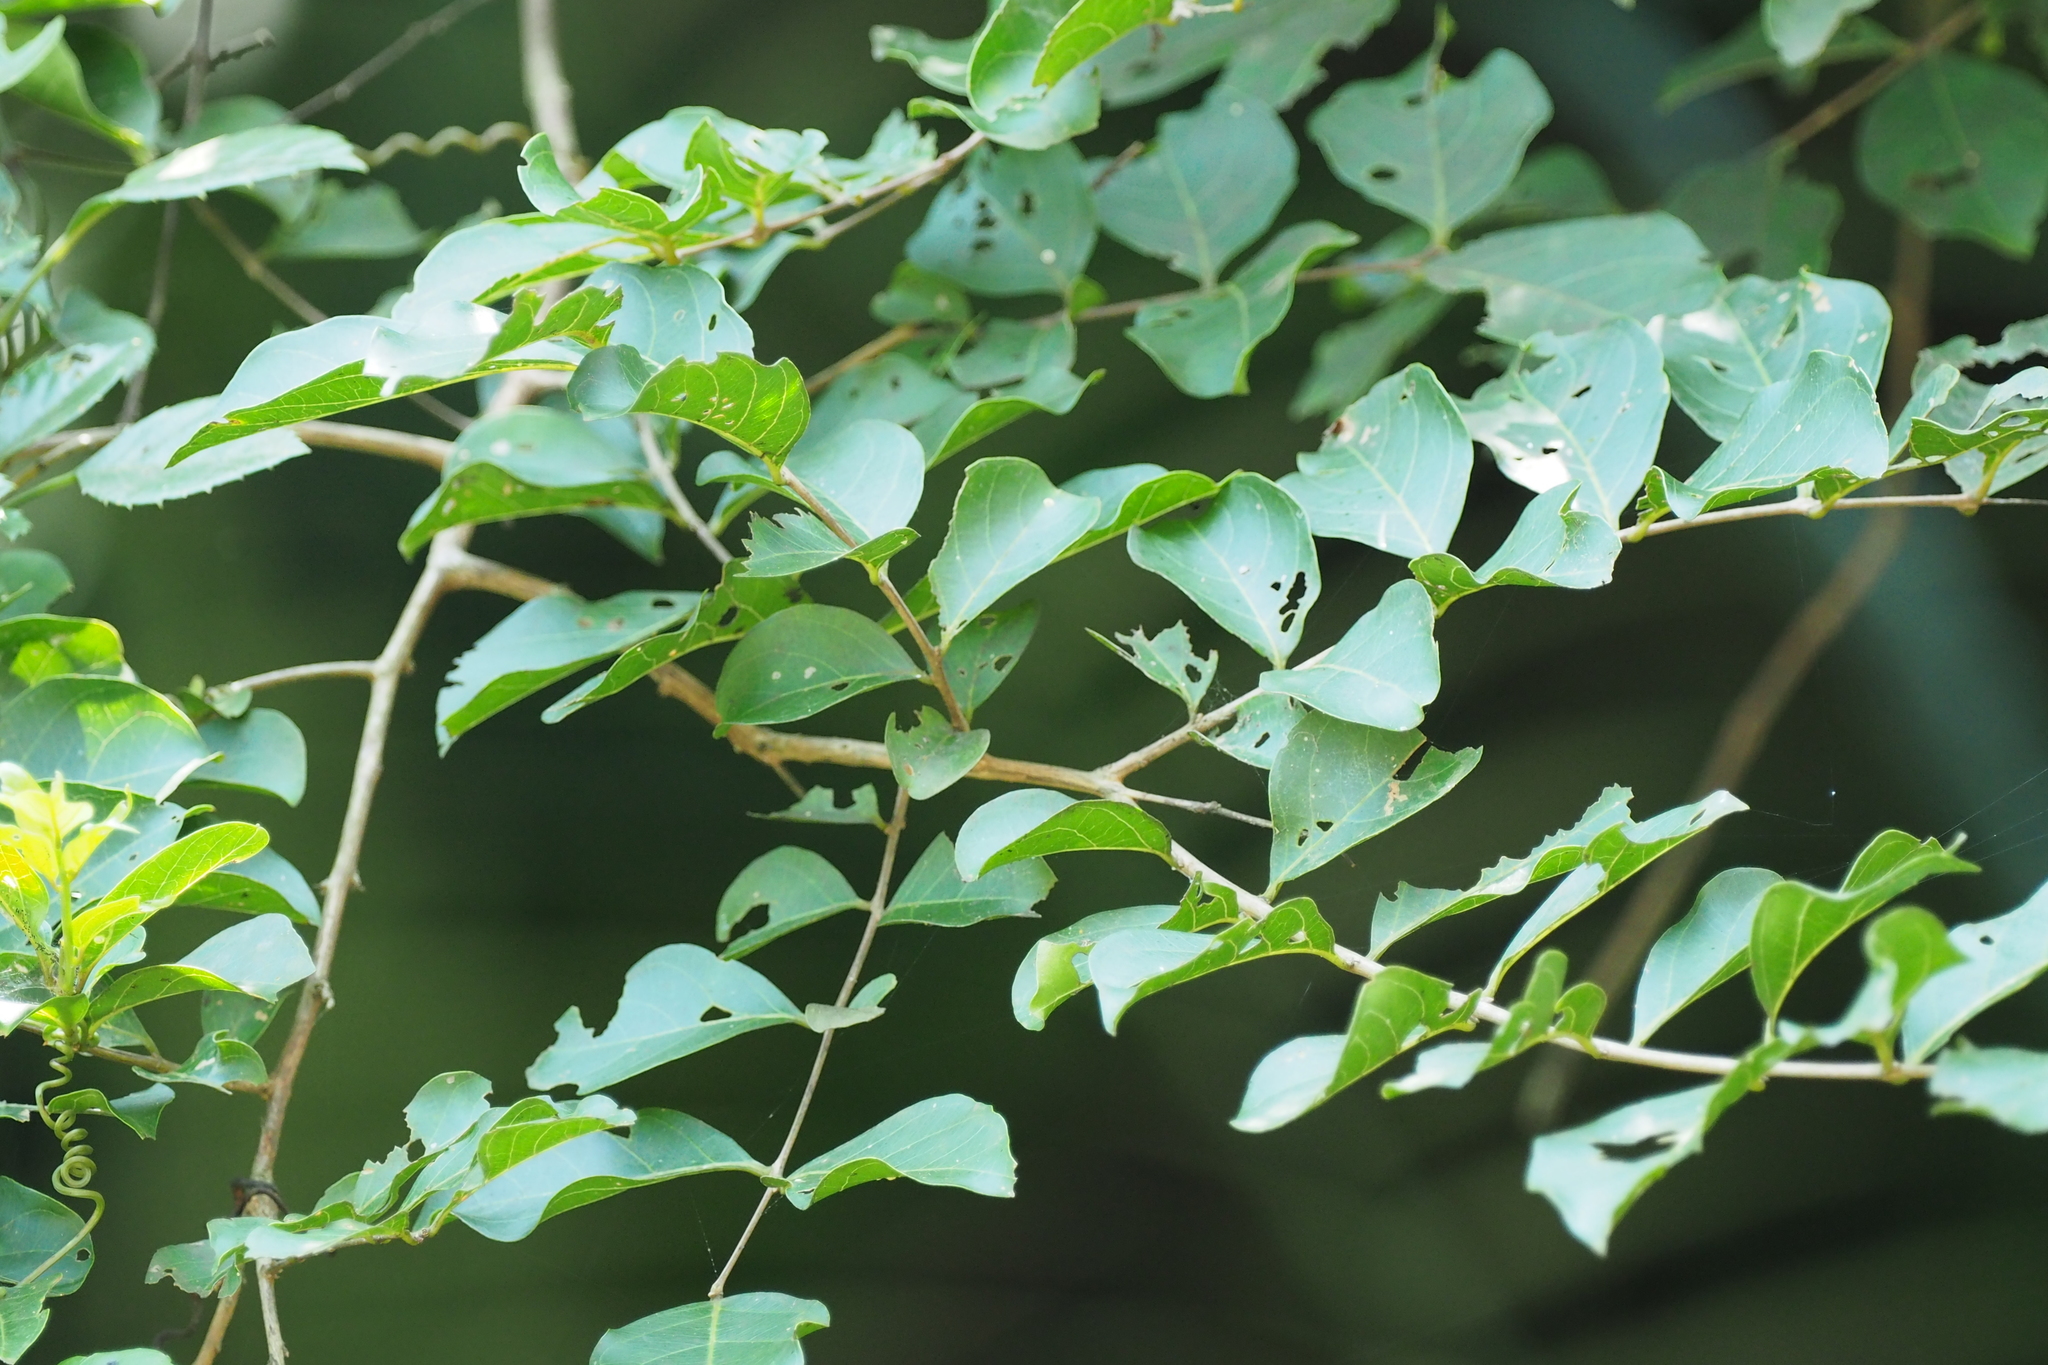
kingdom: Plantae
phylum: Tracheophyta
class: Magnoliopsida
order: Myrtales
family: Lythraceae
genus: Lagerstroemia
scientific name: Lagerstroemia subcostata
